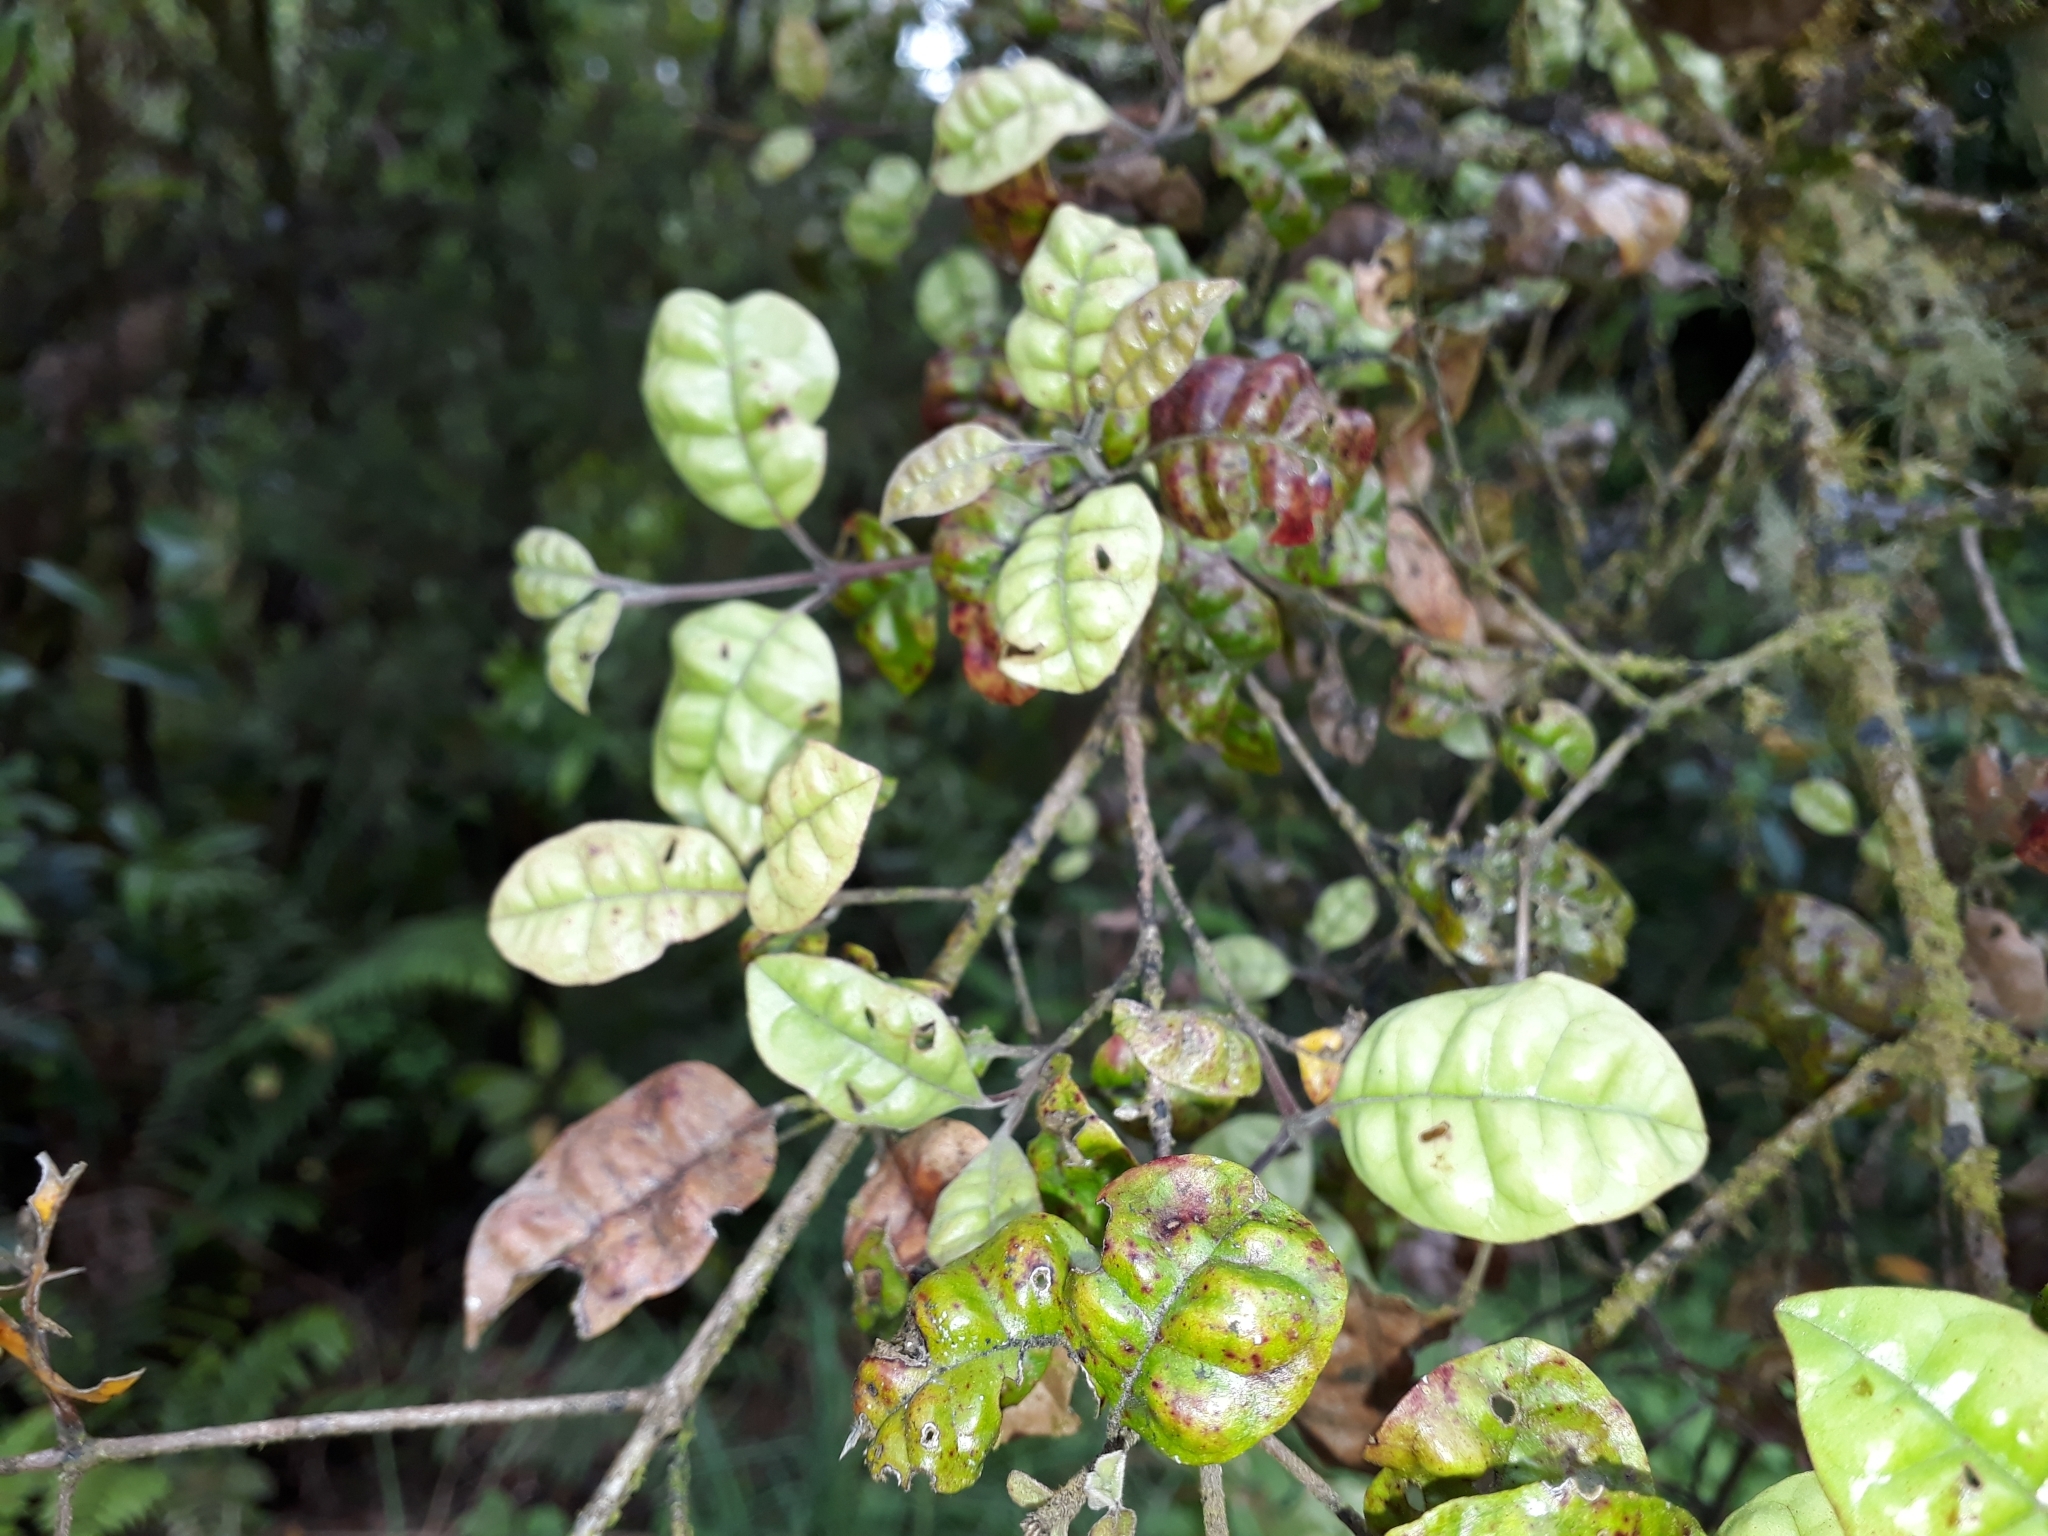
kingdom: Plantae
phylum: Tracheophyta
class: Magnoliopsida
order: Myrtales
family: Myrtaceae
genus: Lophomyrtus
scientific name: Lophomyrtus bullata
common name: Rama rama
